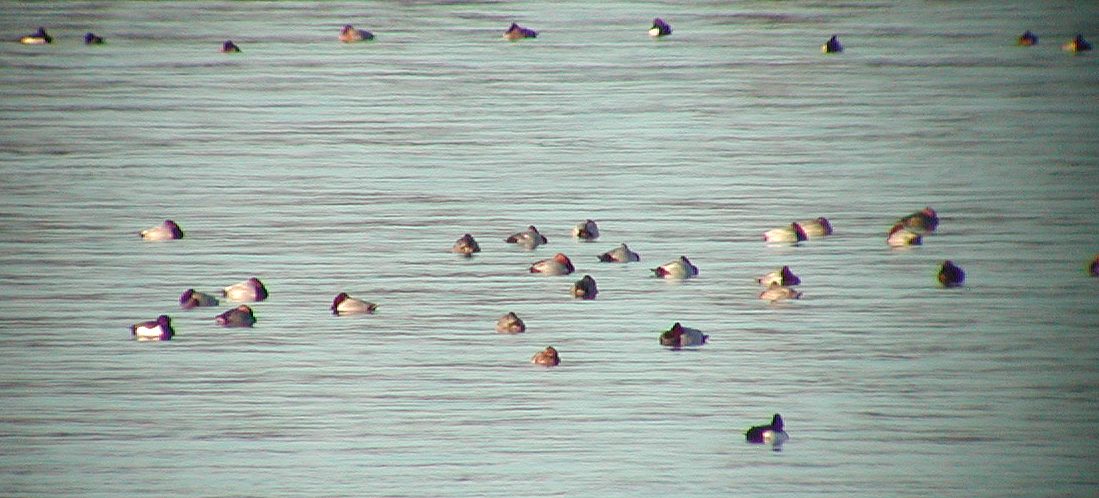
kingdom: Animalia
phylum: Chordata
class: Aves
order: Anseriformes
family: Anatidae
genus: Aythya
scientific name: Aythya ferina
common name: Common pochard
